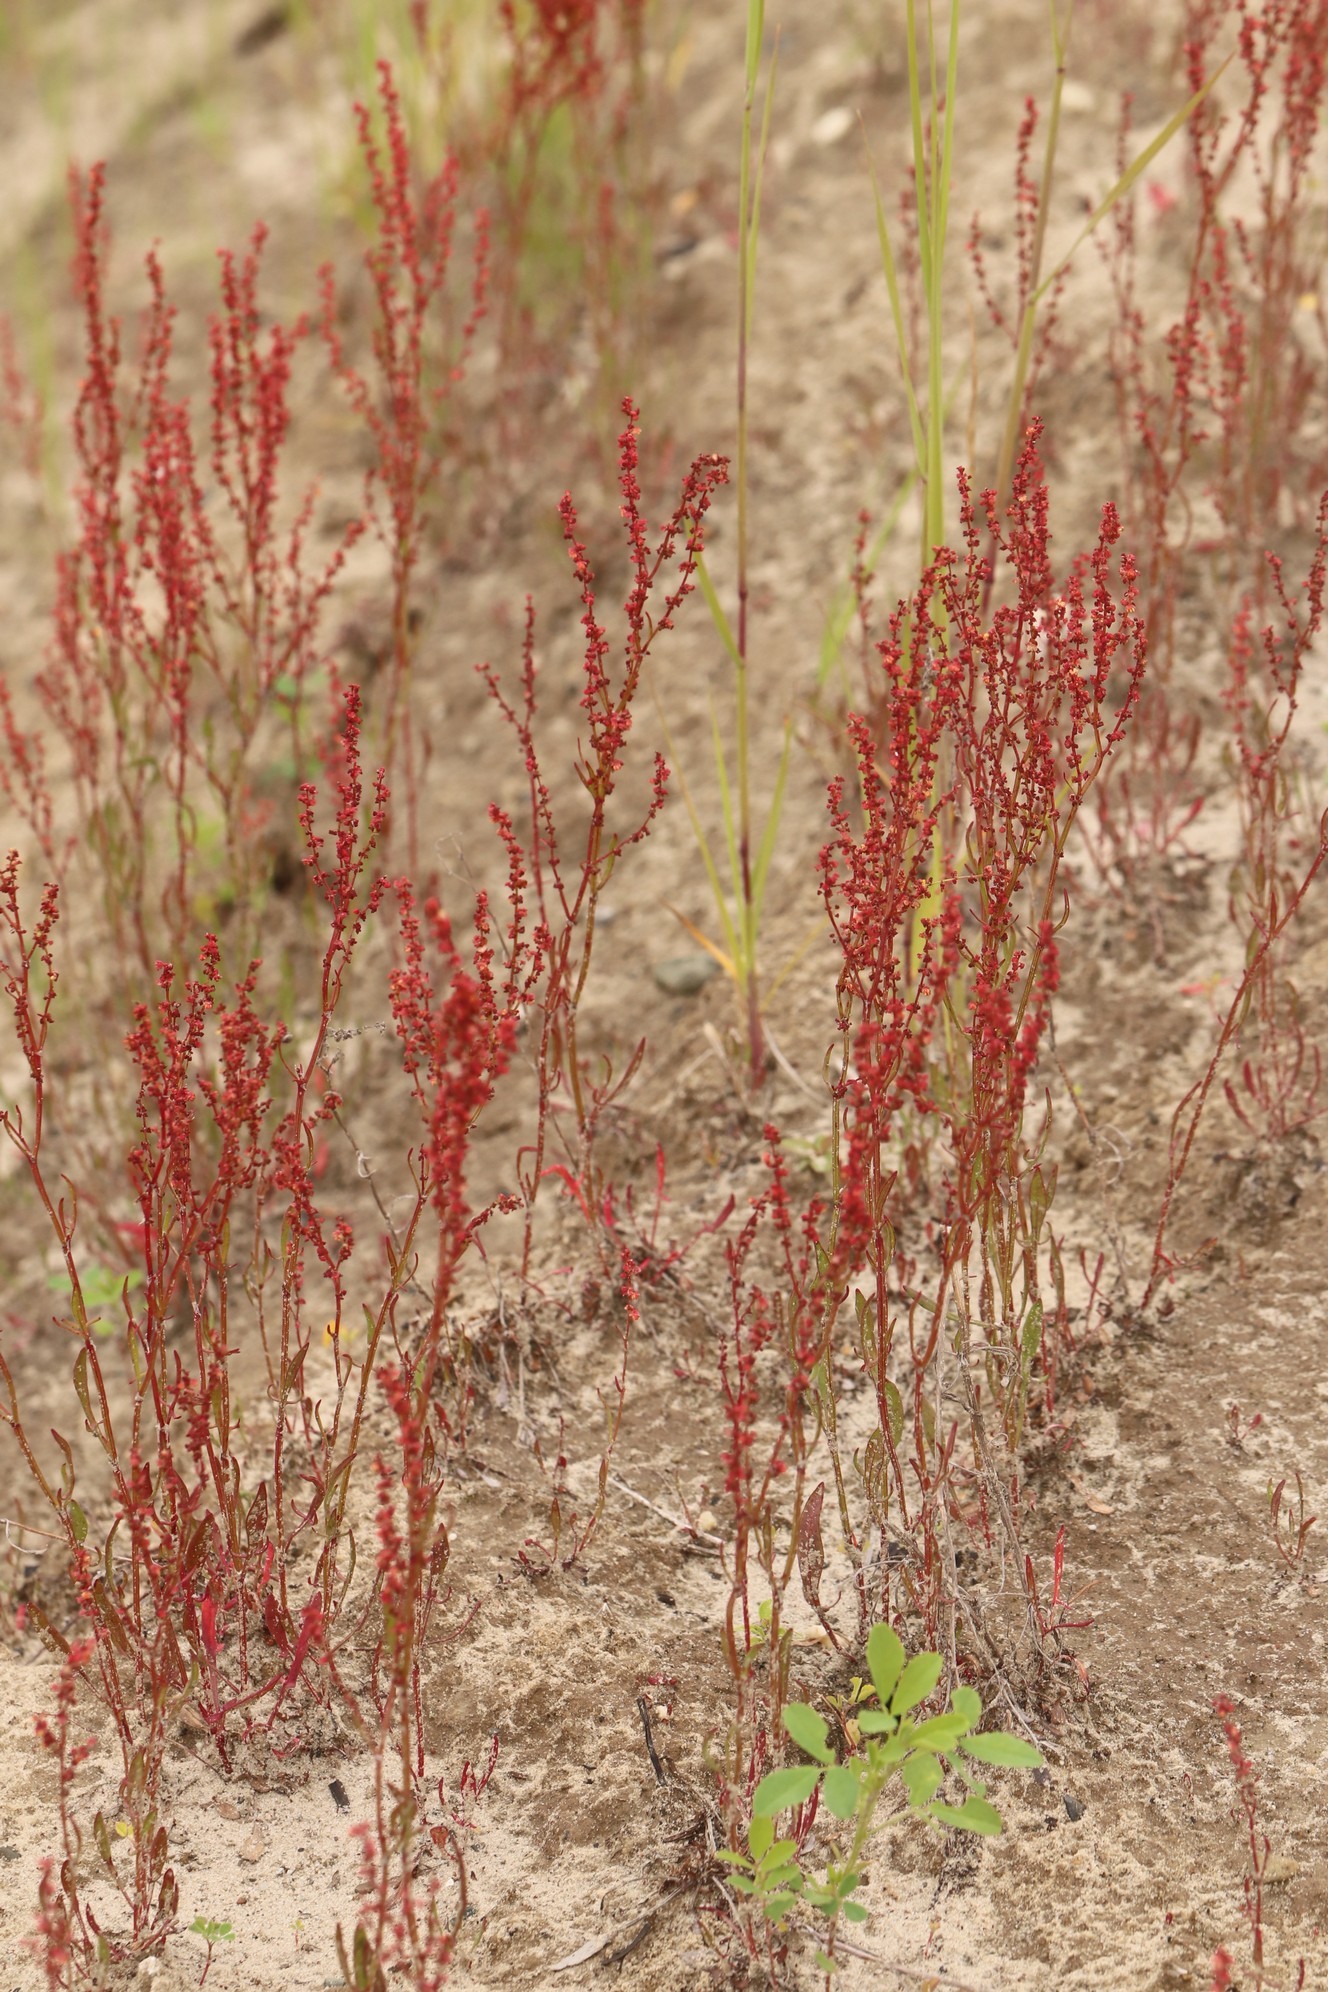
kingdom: Plantae
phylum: Tracheophyta
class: Magnoliopsida
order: Caryophyllales
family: Polygonaceae
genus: Rumex
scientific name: Rumex acetosella
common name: Common sheep sorrel
